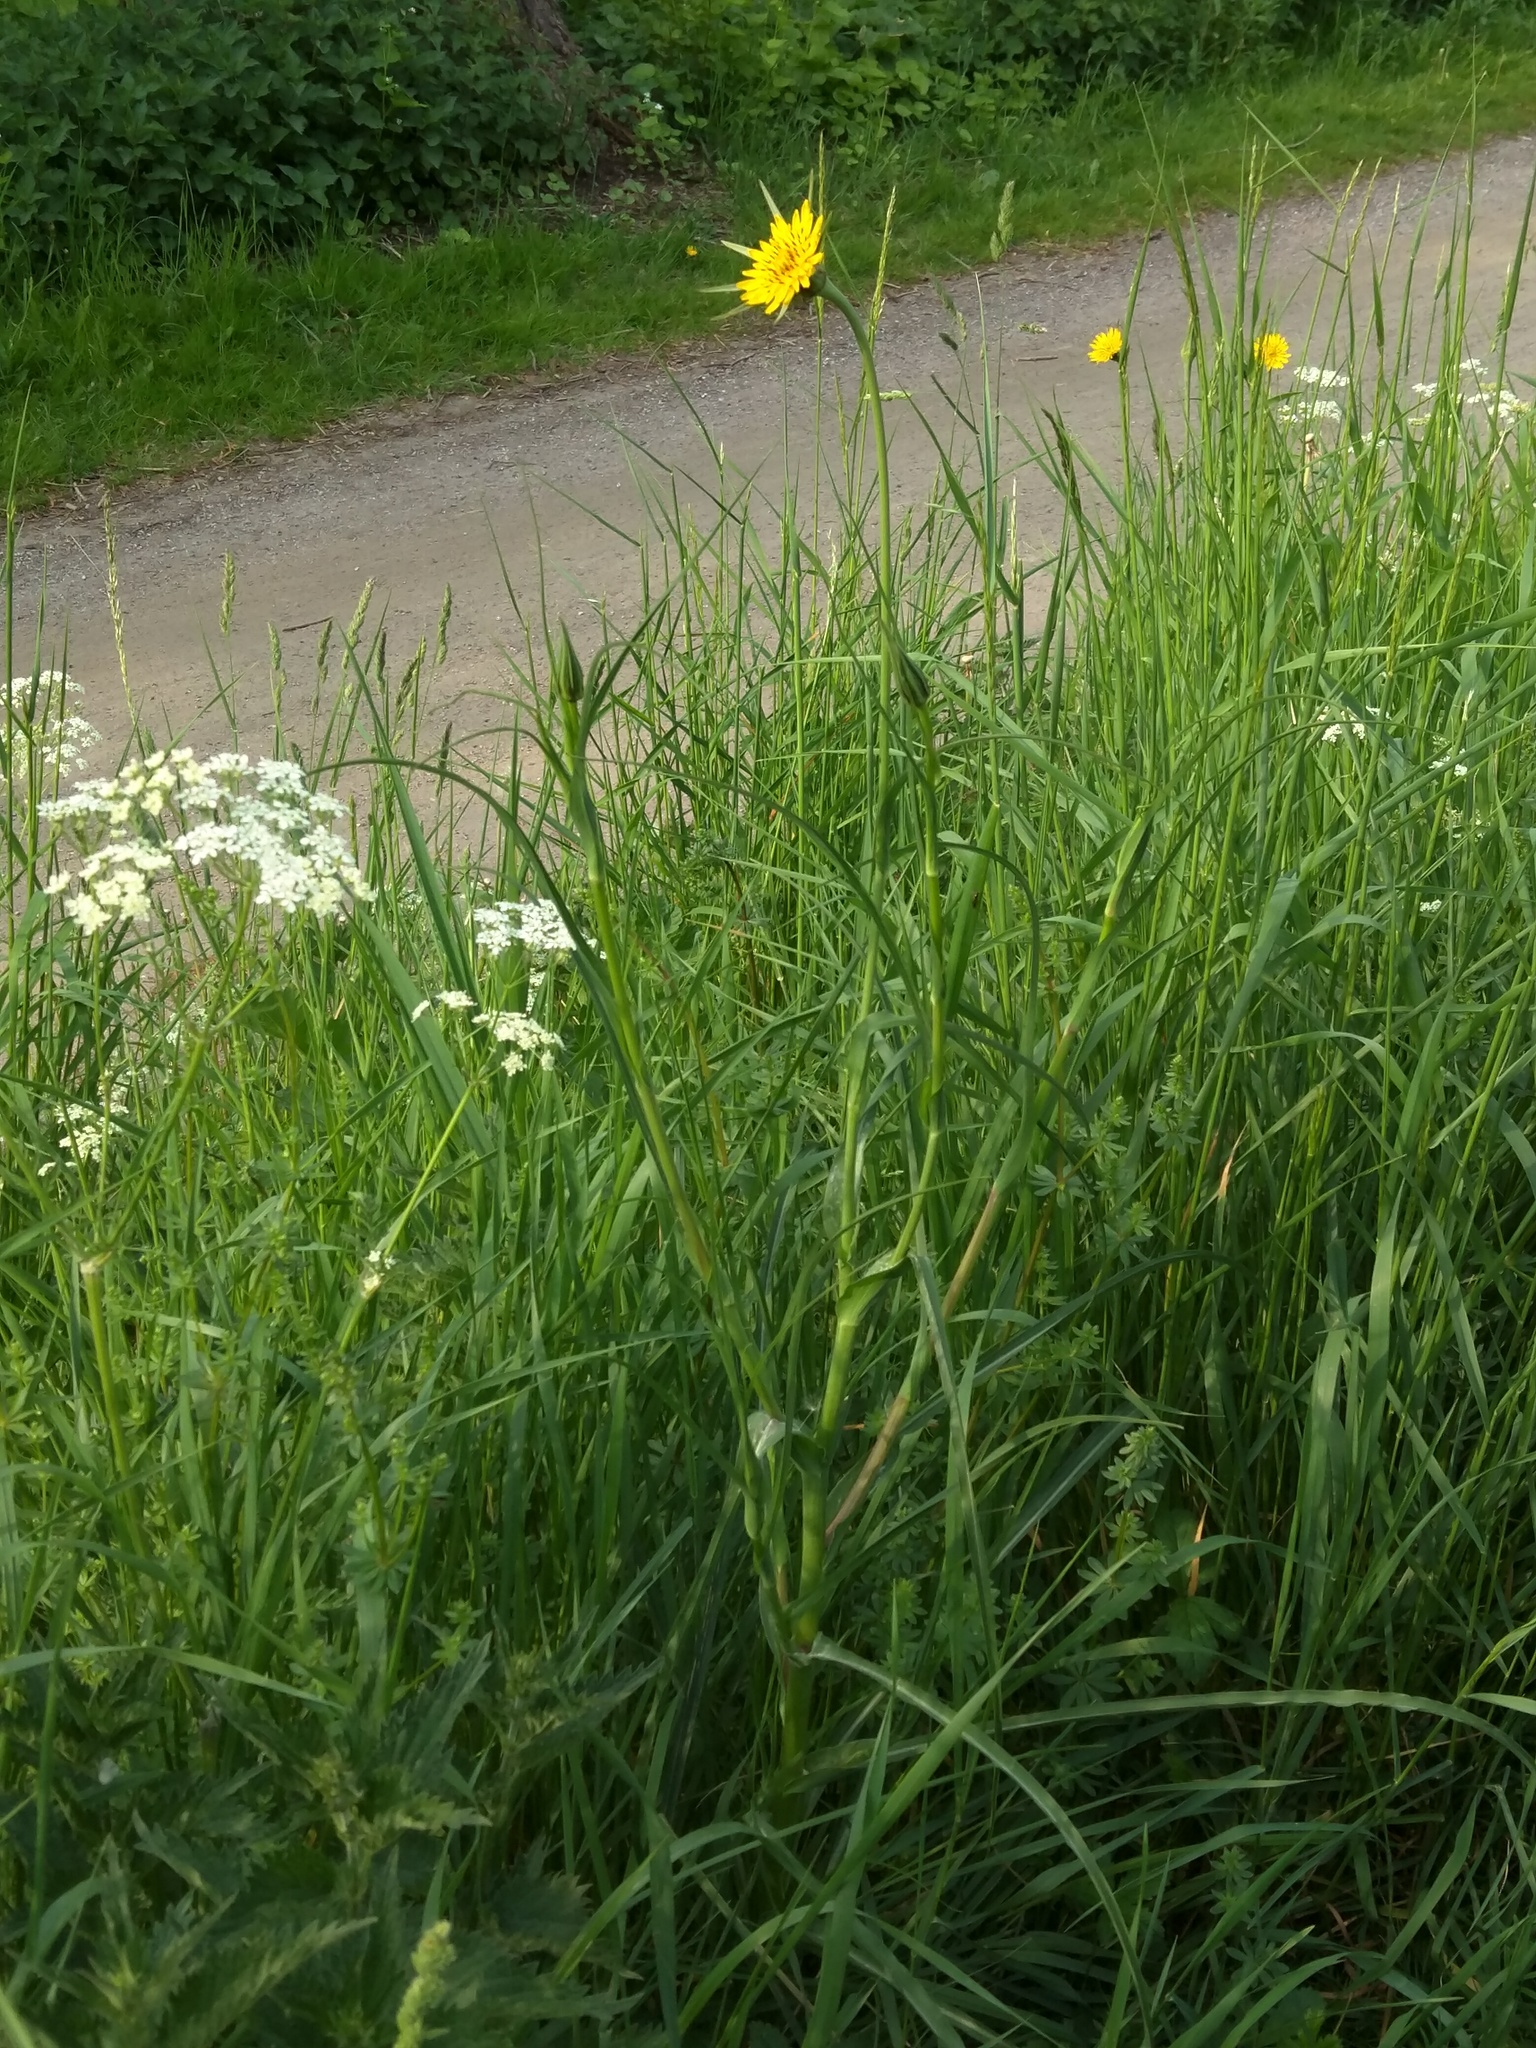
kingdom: Plantae
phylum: Tracheophyta
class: Magnoliopsida
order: Asterales
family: Asteraceae
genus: Tragopogon
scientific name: Tragopogon pratensis
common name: Goat's-beard
